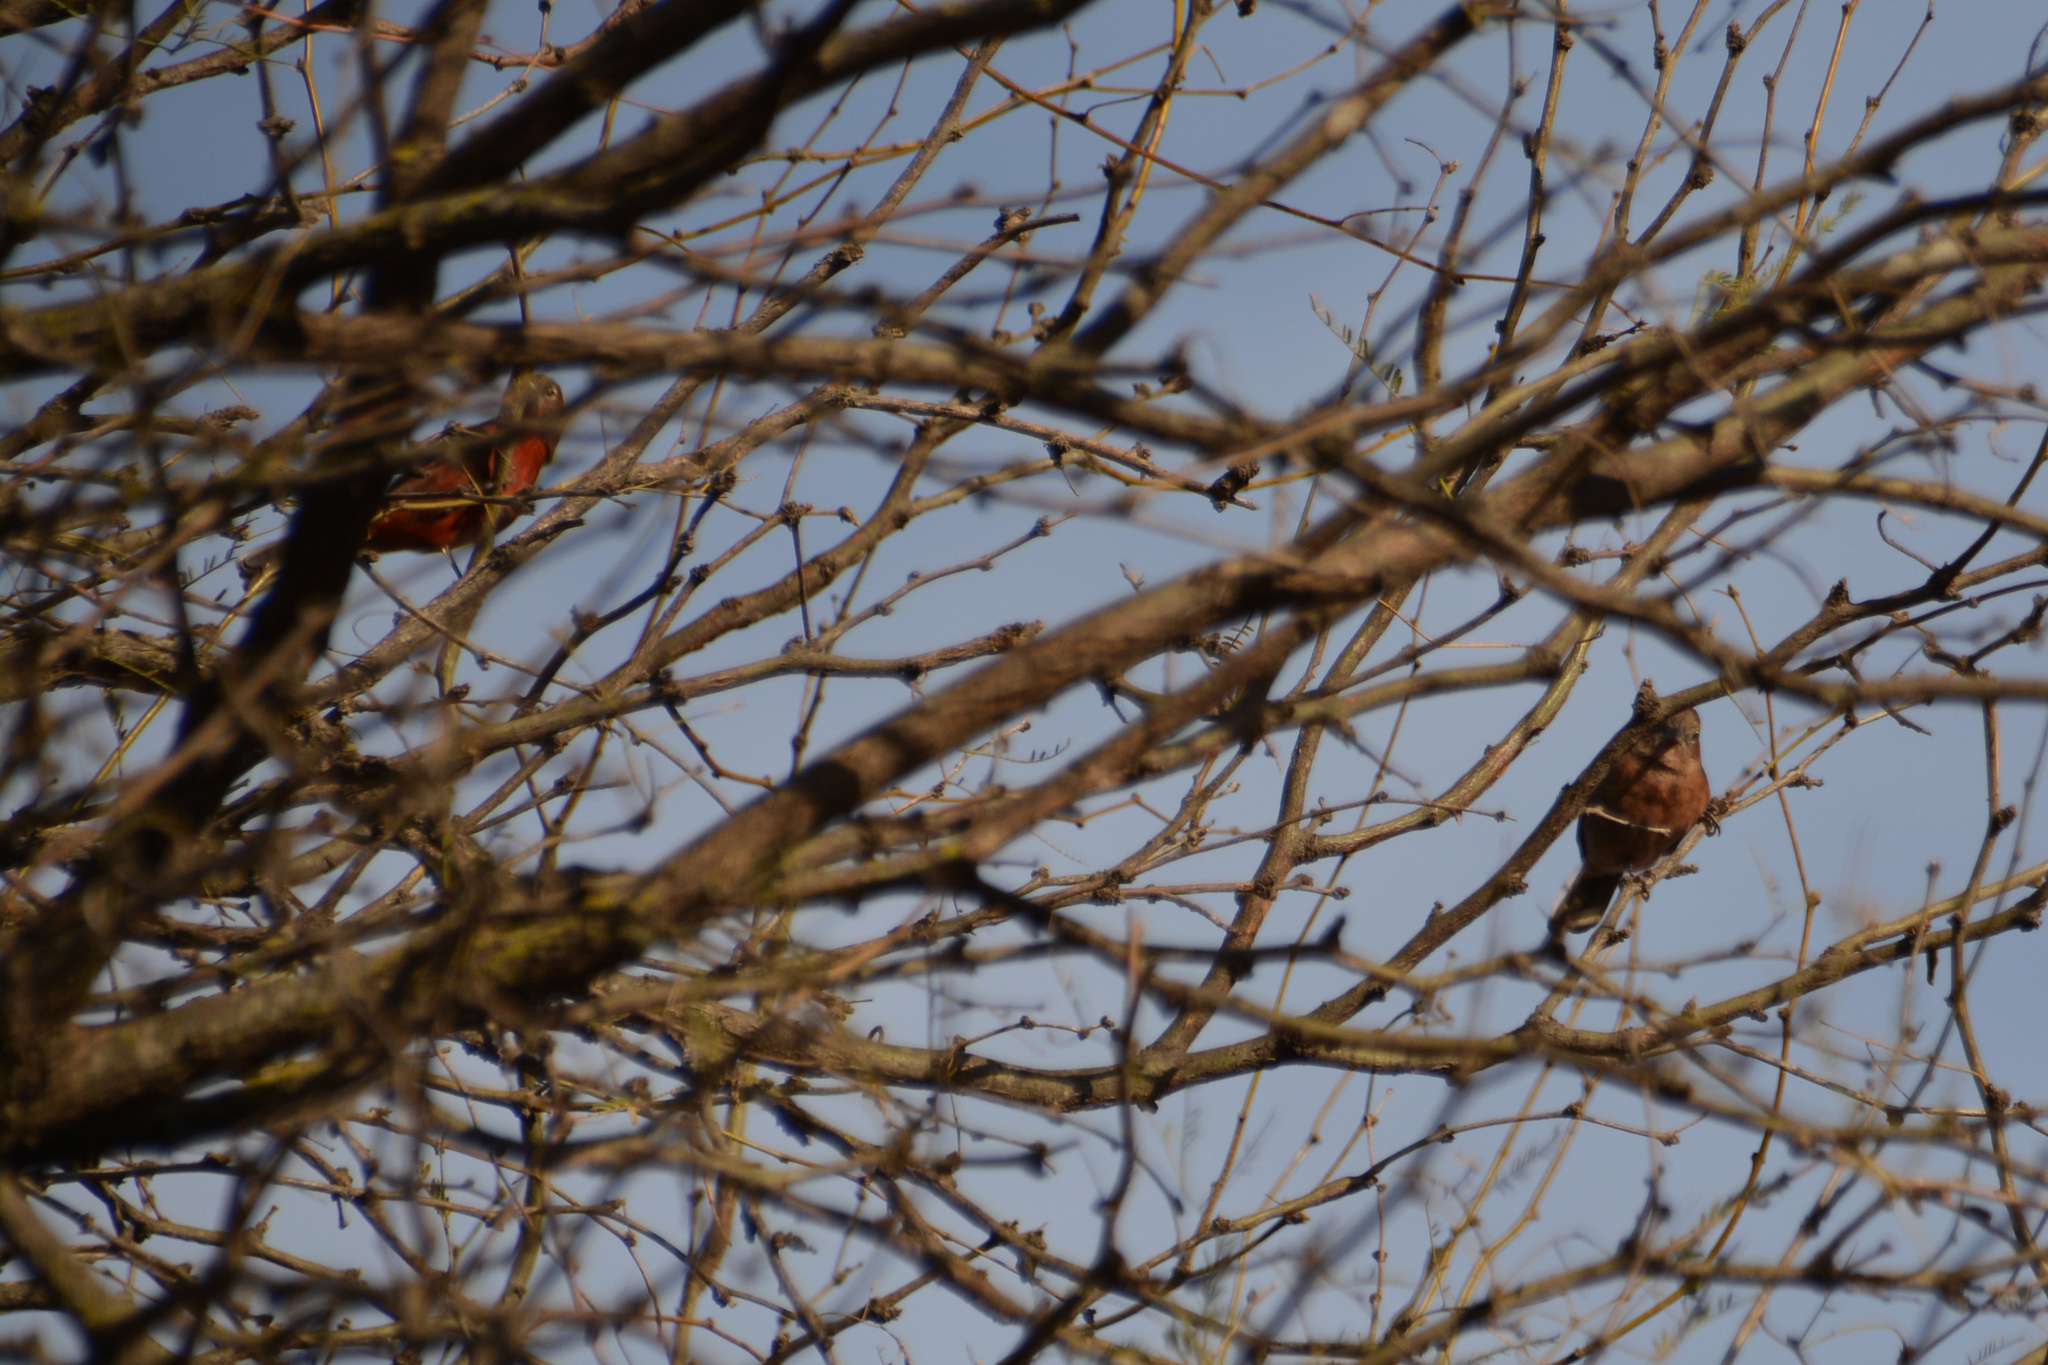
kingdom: Animalia
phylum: Chordata
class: Aves
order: Passeriformes
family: Thraupidae
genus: Coryphospingus
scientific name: Coryphospingus cucullatus
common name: Red pileated finch
